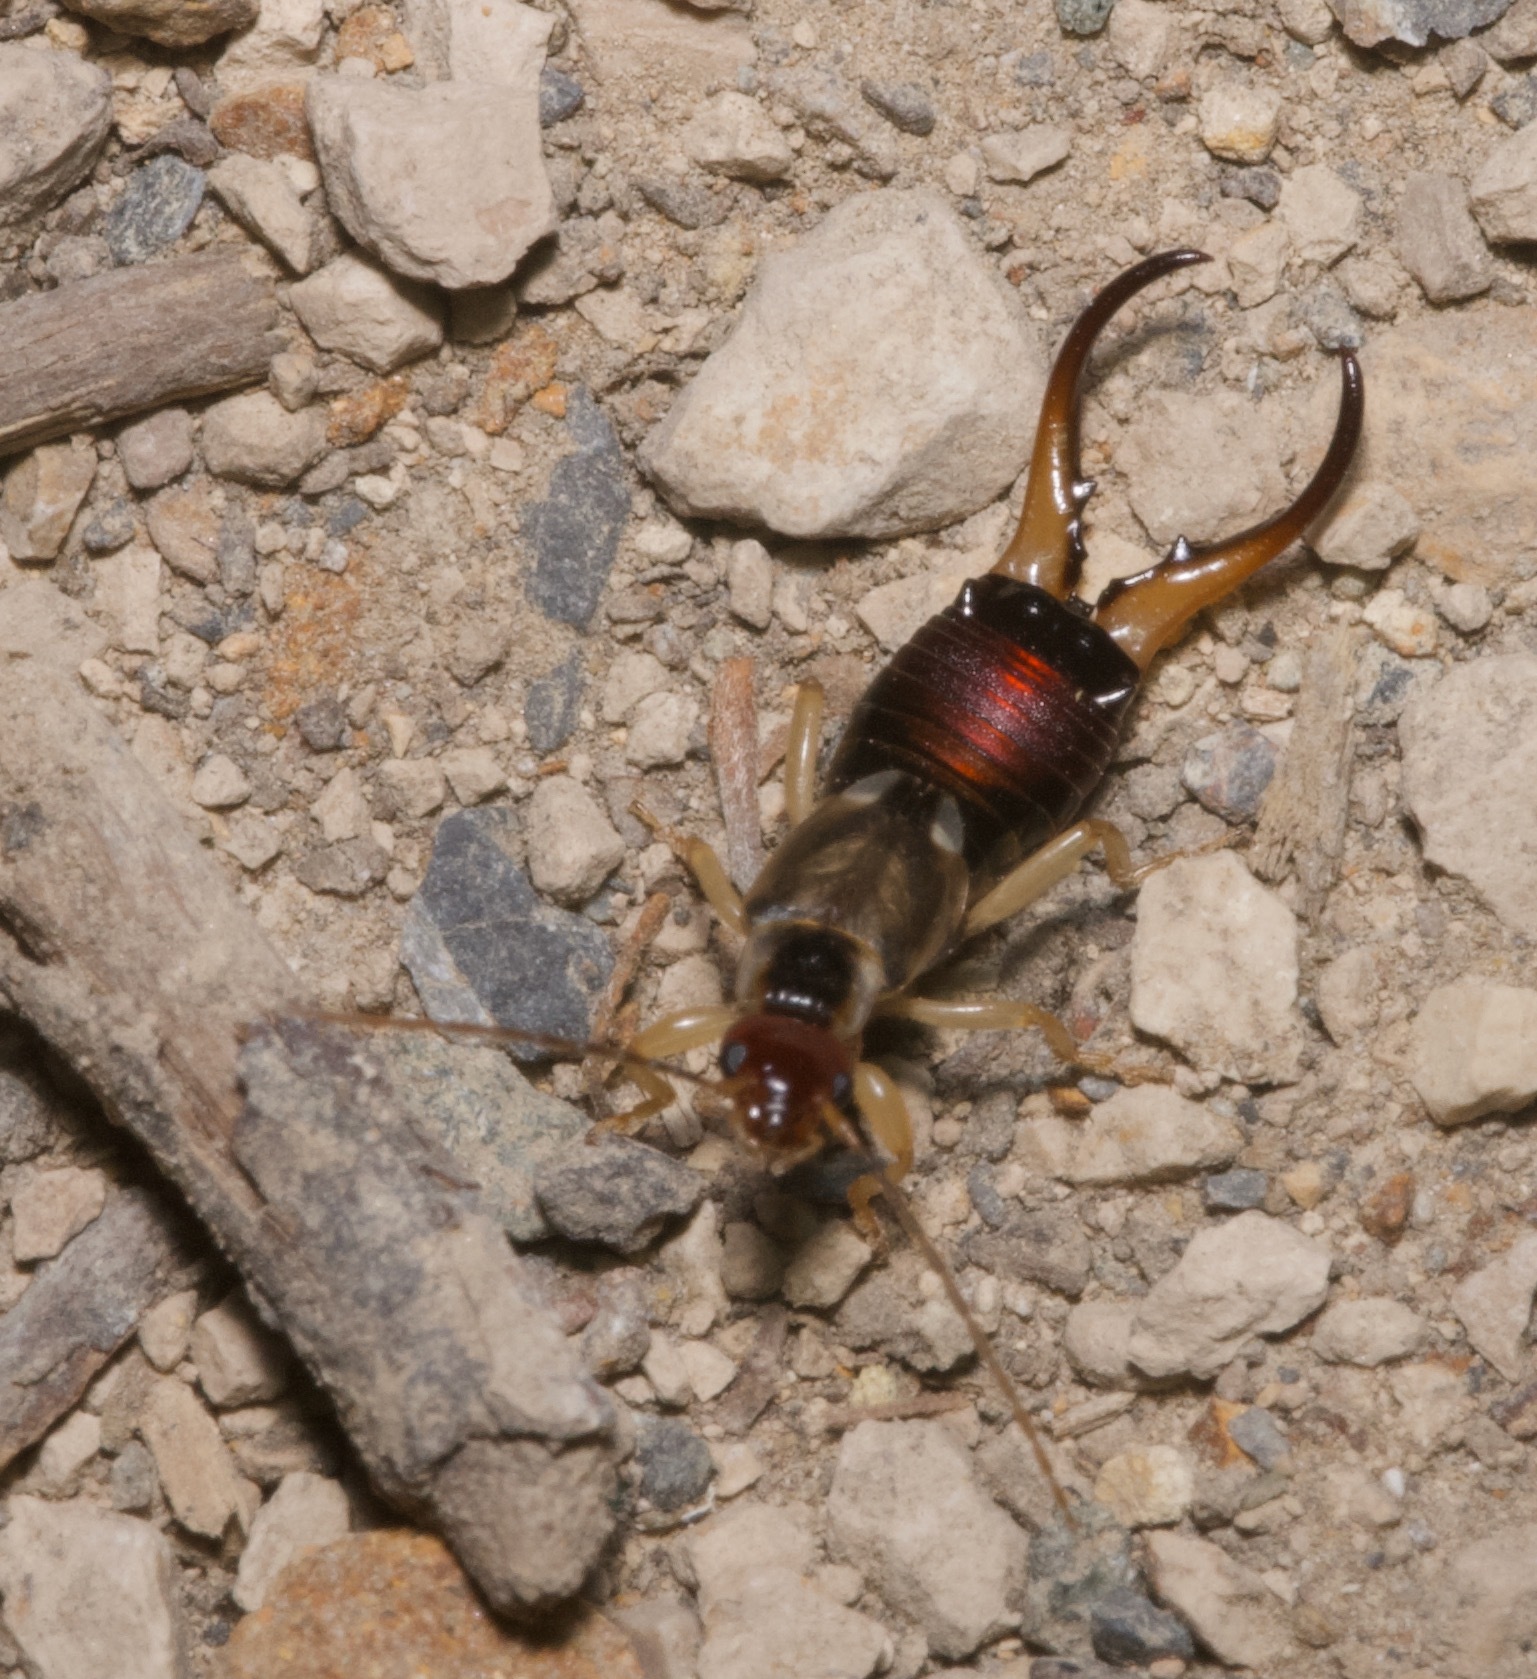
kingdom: Animalia
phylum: Arthropoda
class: Insecta
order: Dermaptera
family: Forficulidae
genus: Forficula
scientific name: Forficula dentata
